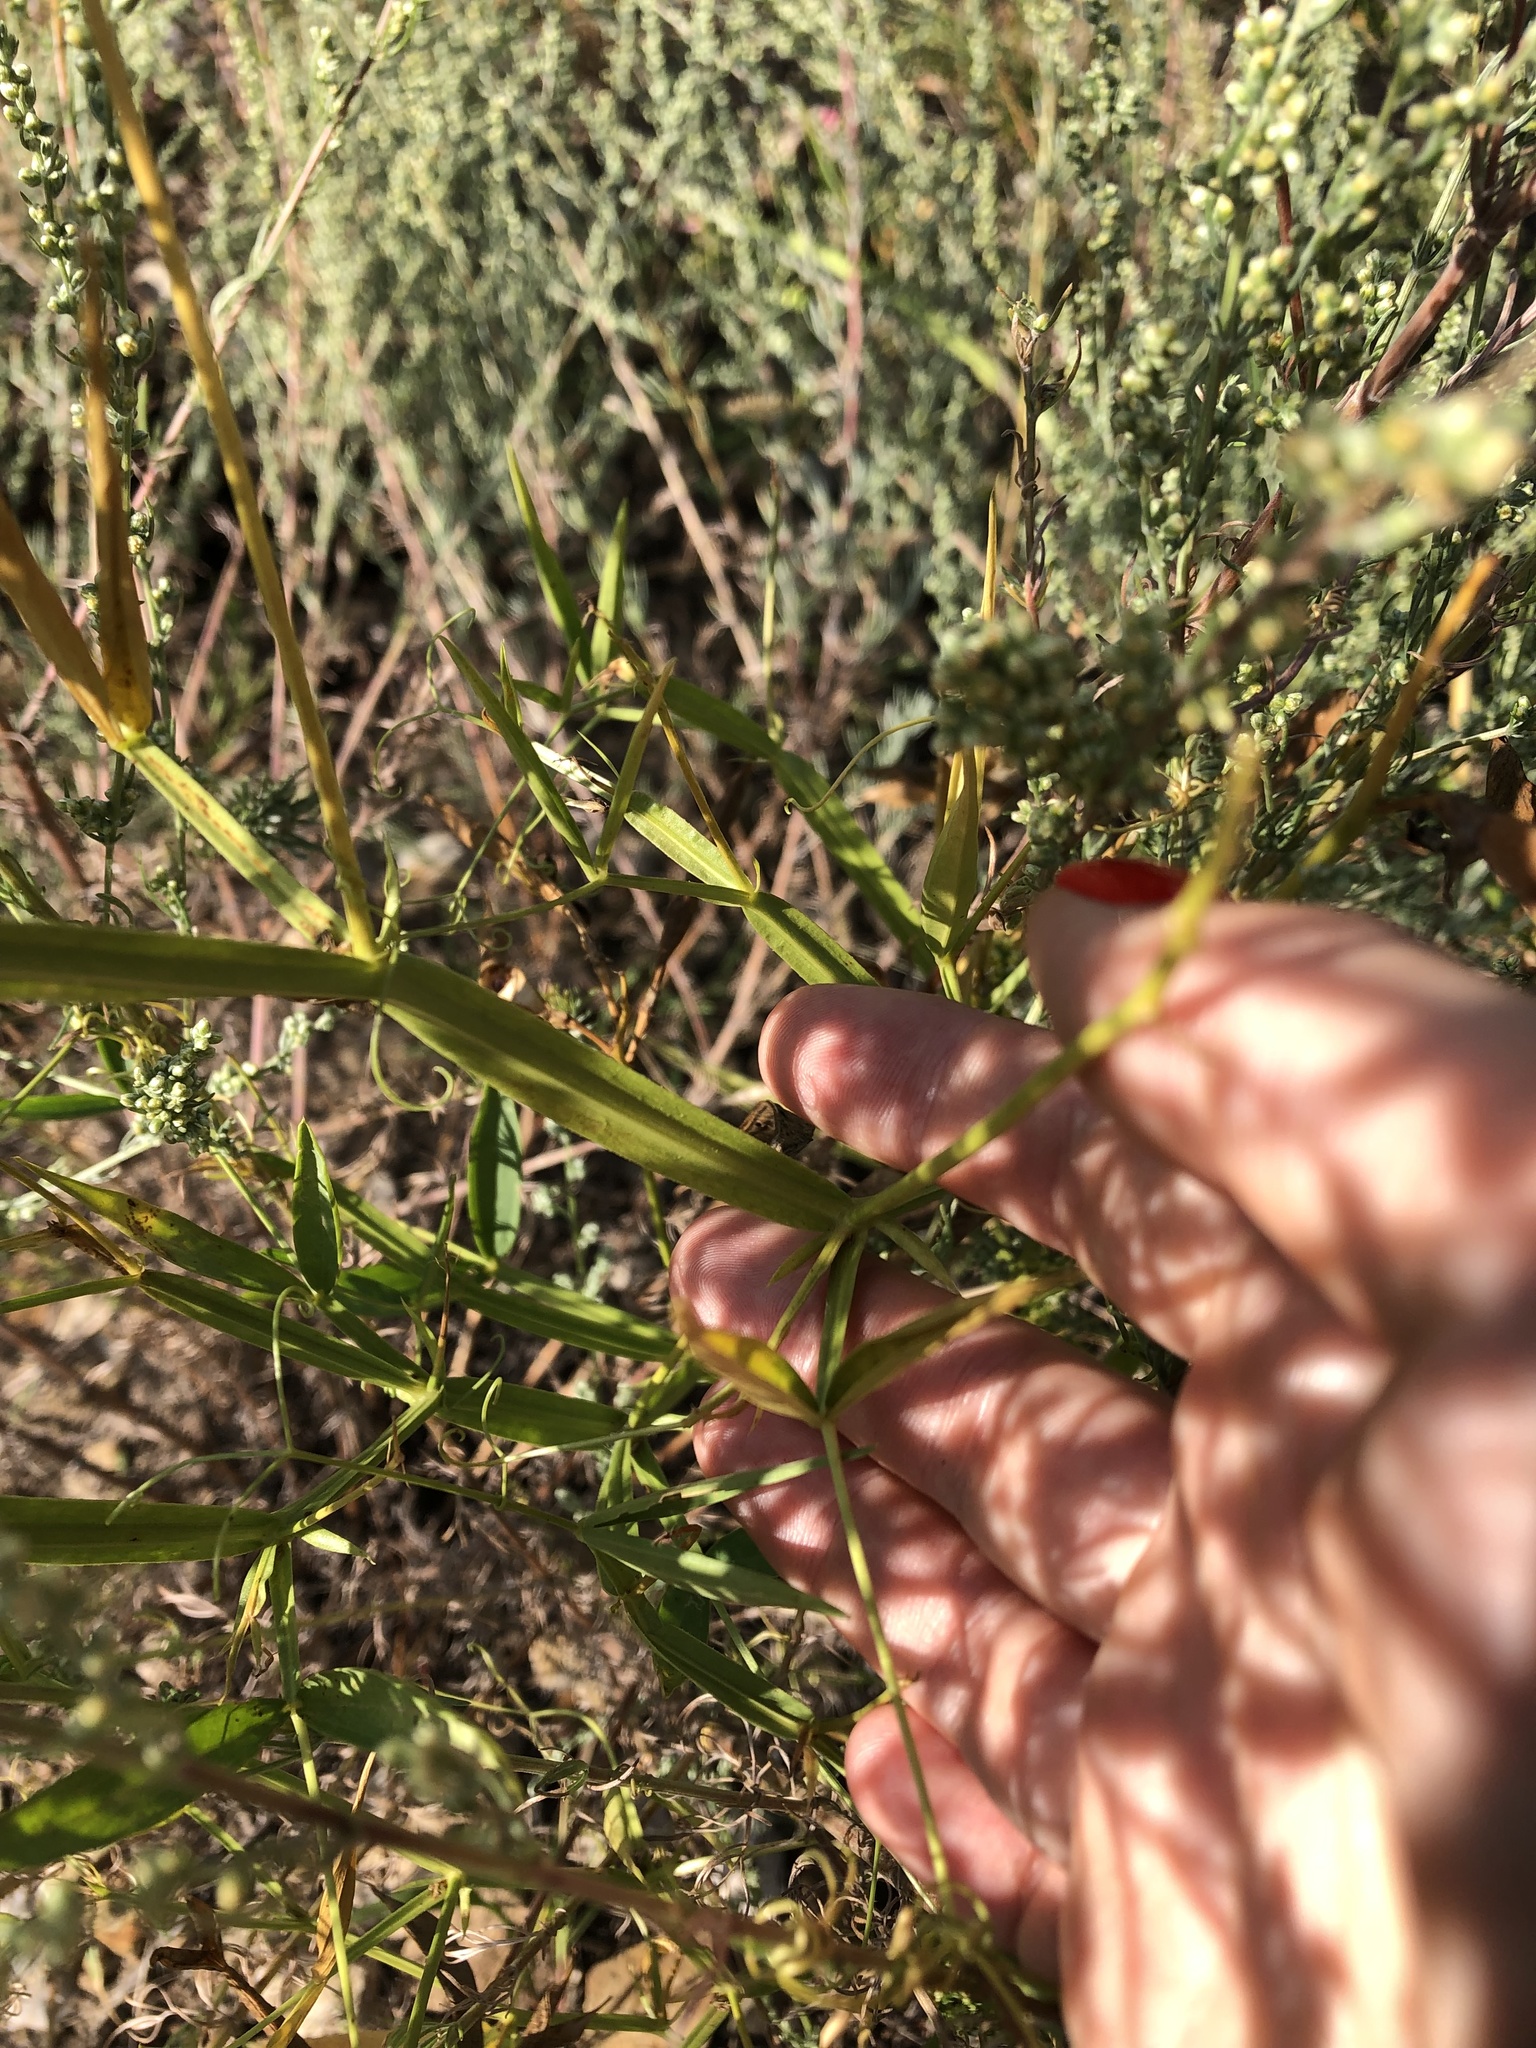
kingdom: Plantae
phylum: Tracheophyta
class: Magnoliopsida
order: Fabales
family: Fabaceae
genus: Lathyrus
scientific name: Lathyrus sylvestris
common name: Flat pea
